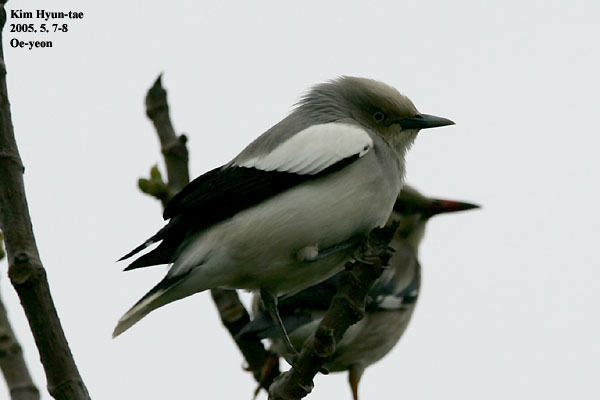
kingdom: Animalia
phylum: Chordata
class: Aves
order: Passeriformes
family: Sturnidae
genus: Sturnia
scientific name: Sturnia sinensis
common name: White-shouldered starling
